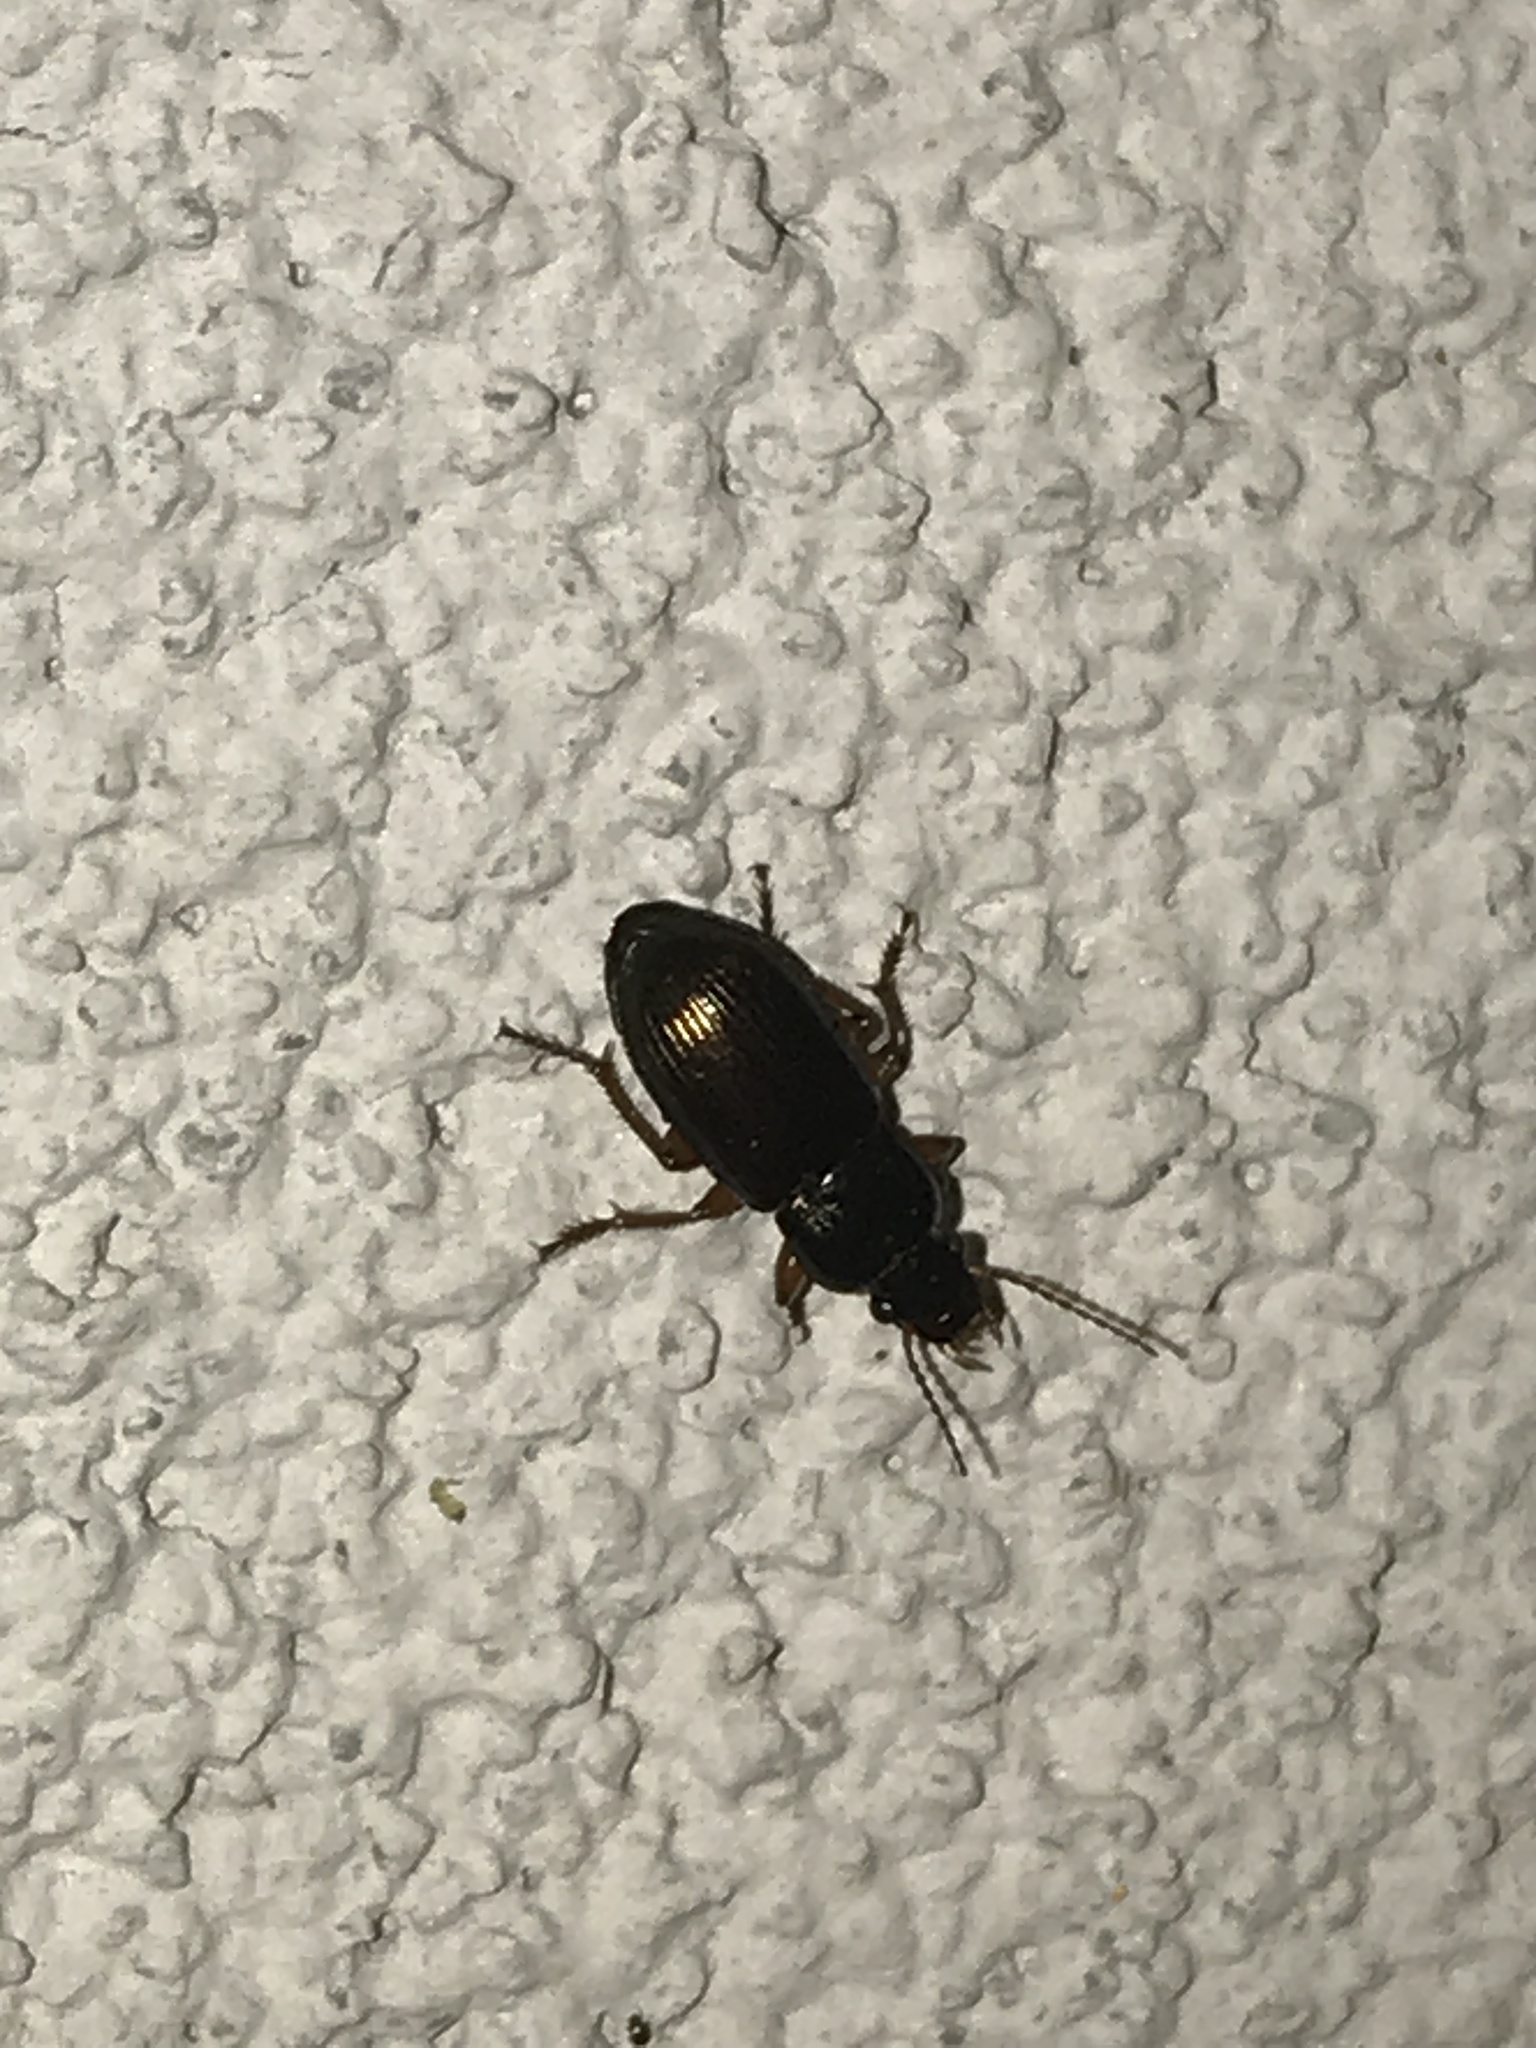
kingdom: Animalia
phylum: Arthropoda
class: Insecta
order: Coleoptera
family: Carabidae
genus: Harpalus
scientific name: Harpalus affinis
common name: Polychrome harp ground beetle
